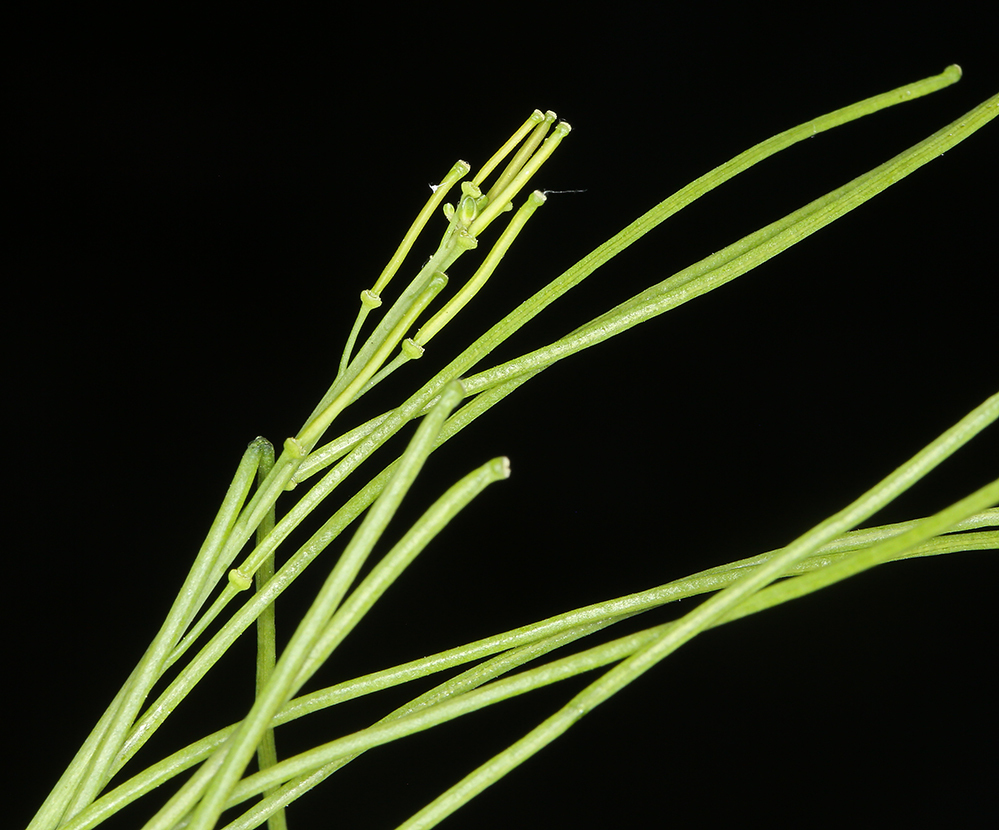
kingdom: Plantae
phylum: Tracheophyta
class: Magnoliopsida
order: Brassicales
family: Brassicaceae
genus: Turritis
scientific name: Turritis glabra
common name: Tower rockcress
